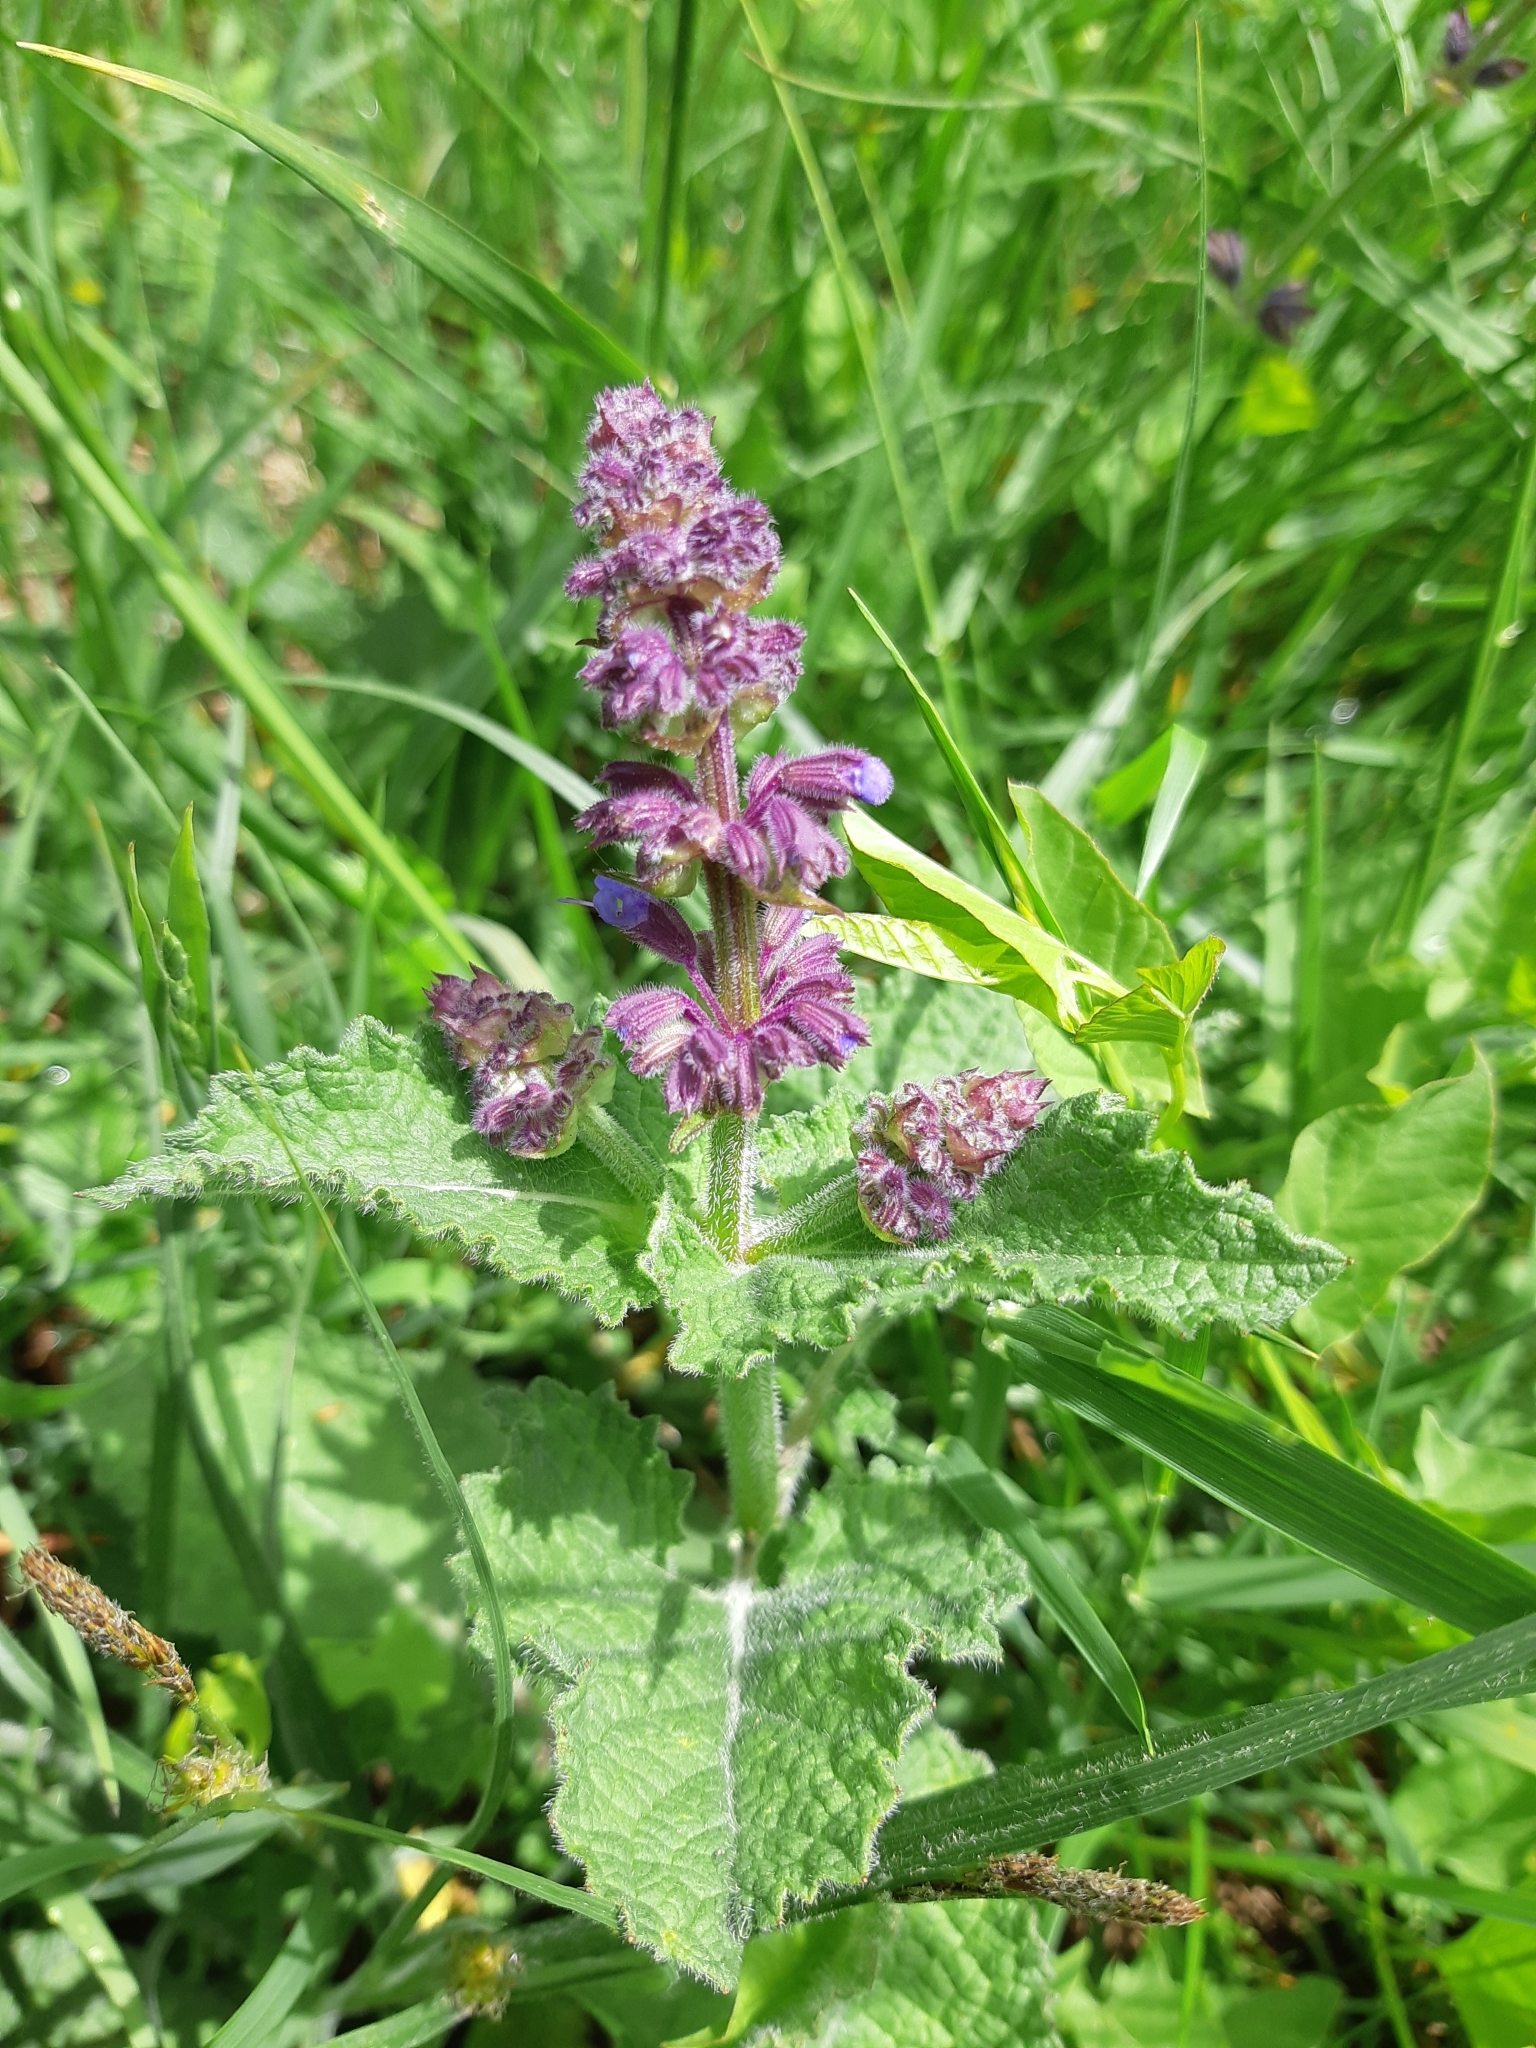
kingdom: Plantae
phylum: Tracheophyta
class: Magnoliopsida
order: Lamiales
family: Lamiaceae
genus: Salvia
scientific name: Salvia verticillata
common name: Whorled clary
